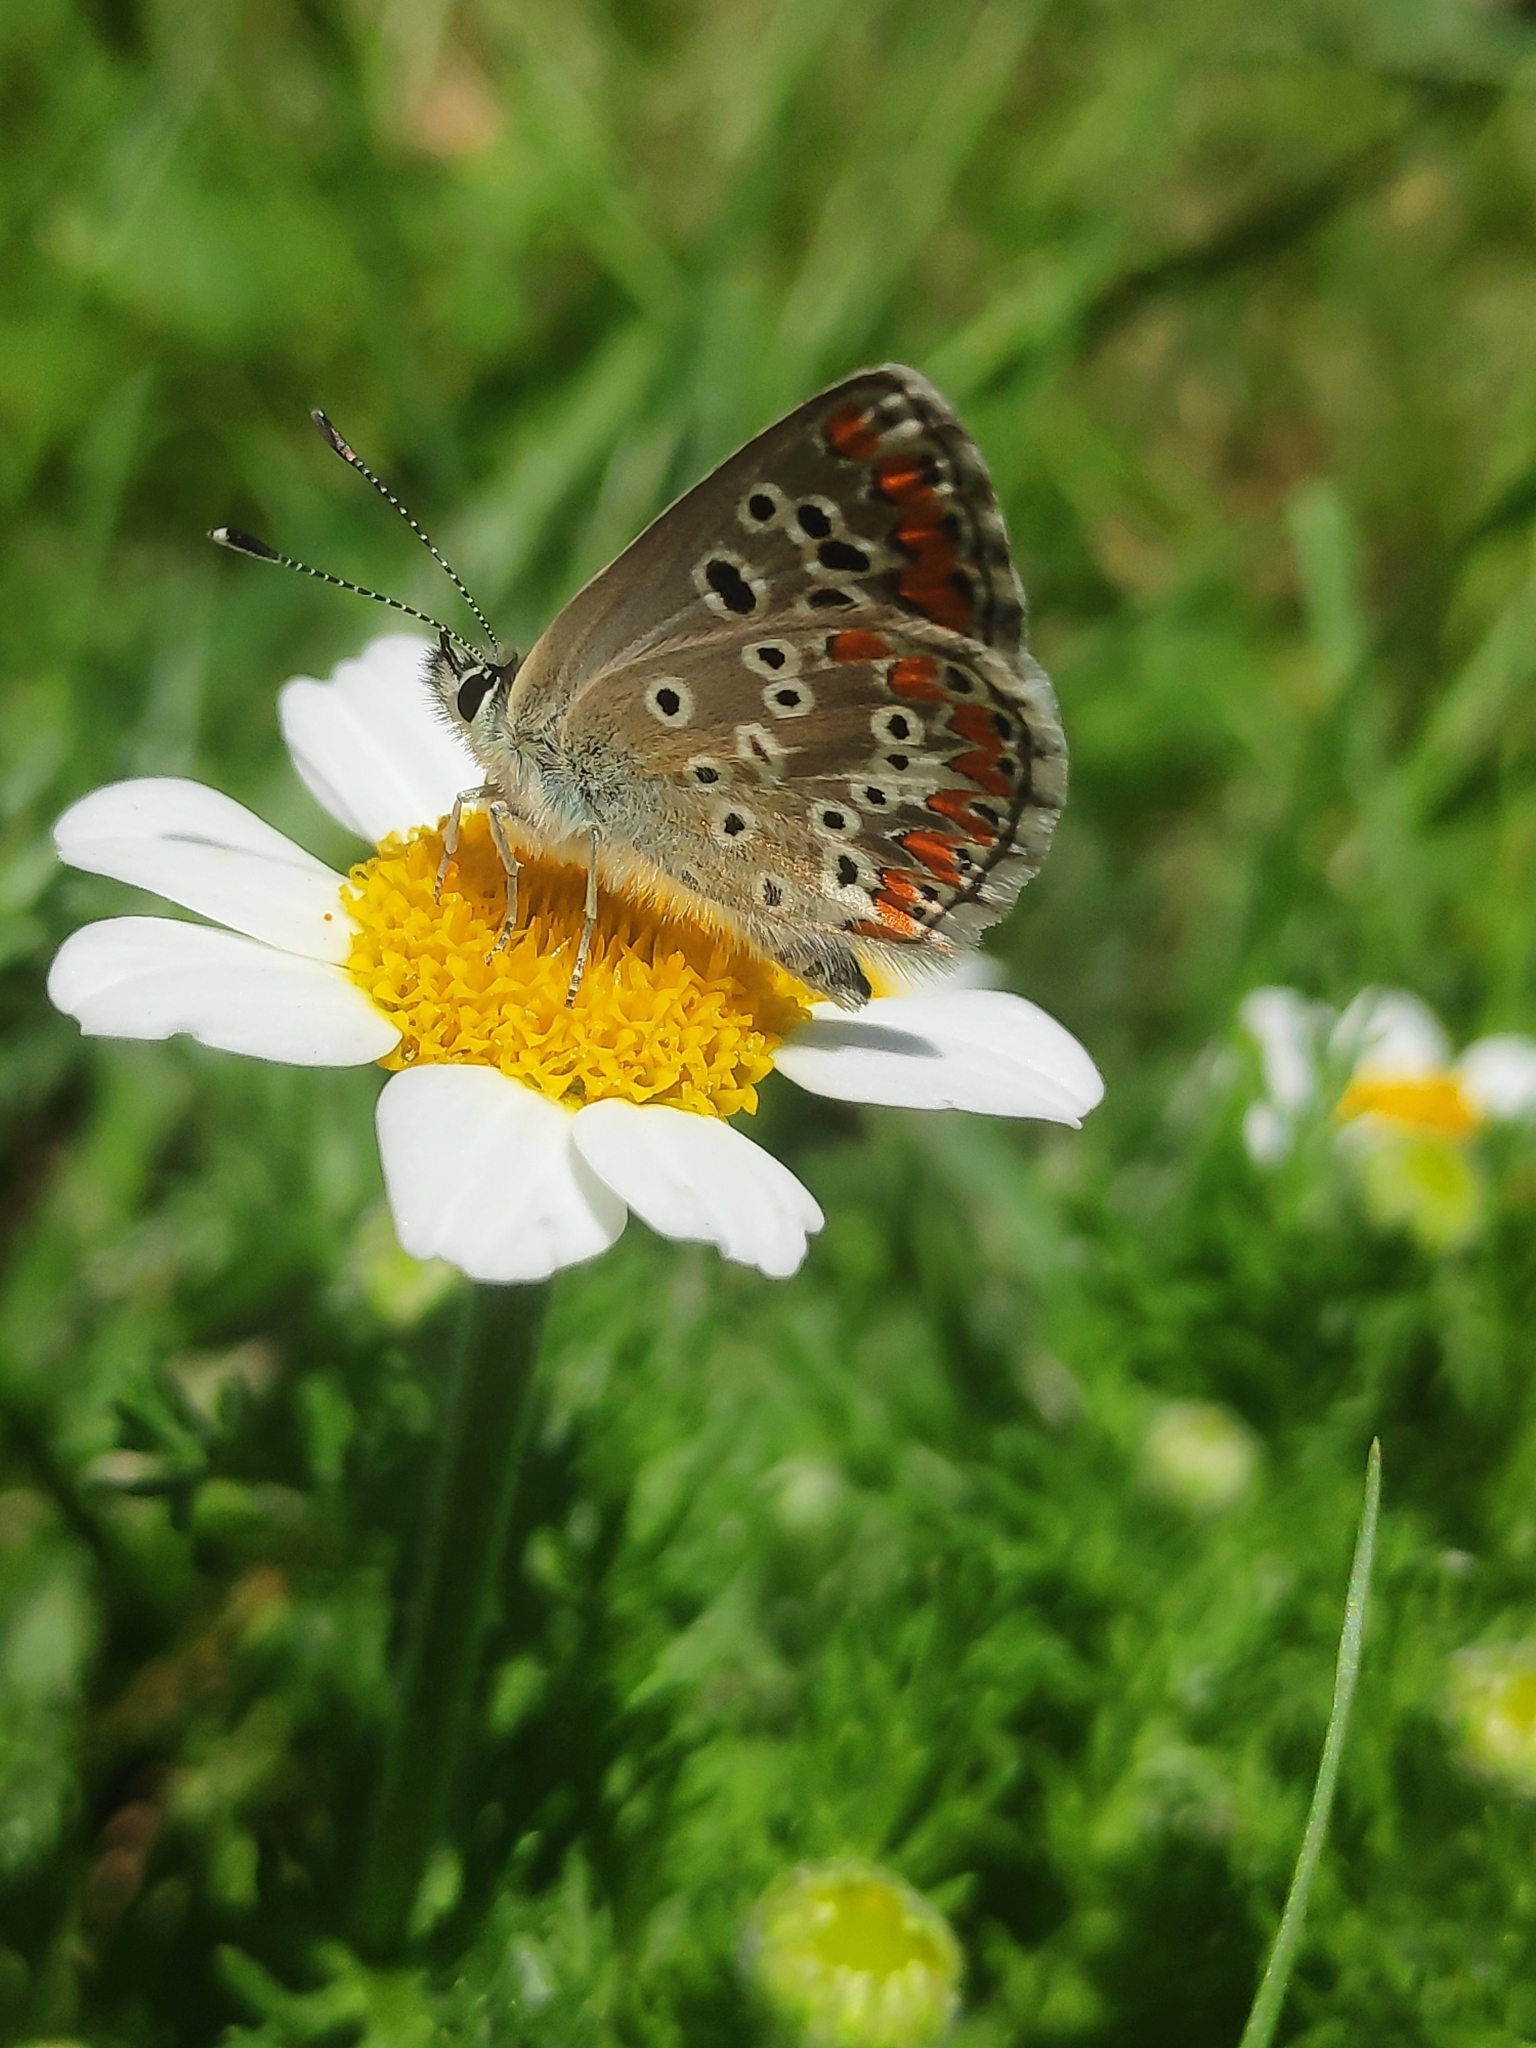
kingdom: Animalia
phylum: Arthropoda
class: Insecta
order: Lepidoptera
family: Lycaenidae
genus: Aricia
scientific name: Aricia cramera
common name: Eschscholtz´s brown  argus
